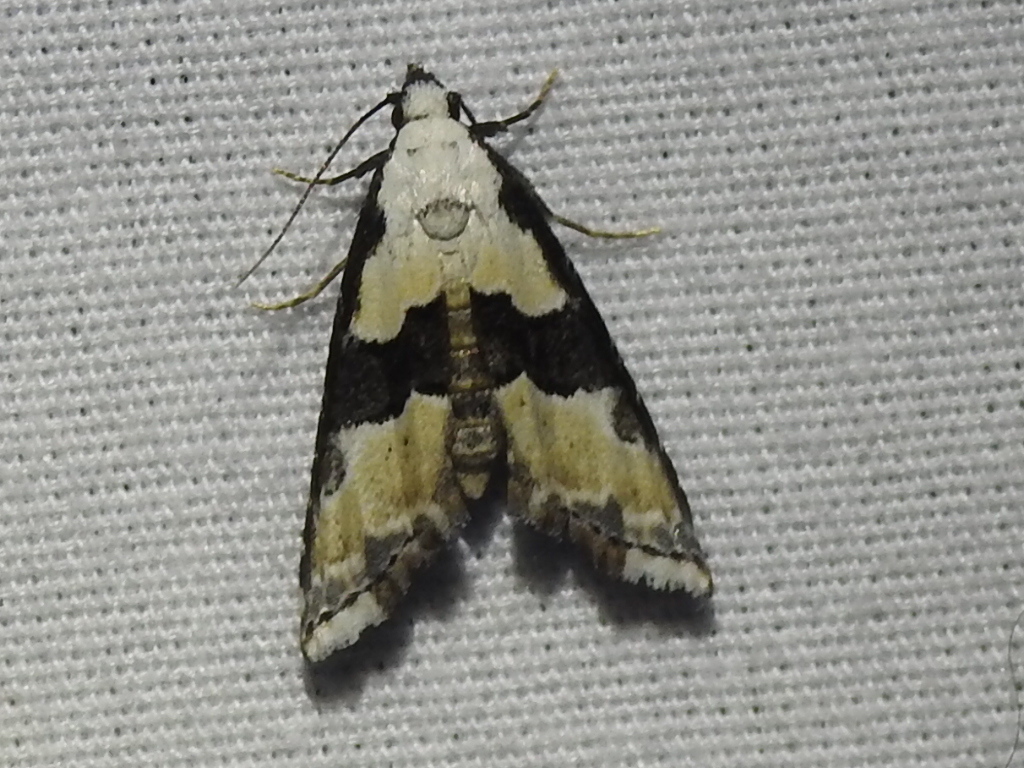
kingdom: Animalia
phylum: Arthropoda
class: Insecta
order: Lepidoptera
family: Noctuidae
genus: Nigetia
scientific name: Nigetia formosalis
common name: Thin-winged owlet
